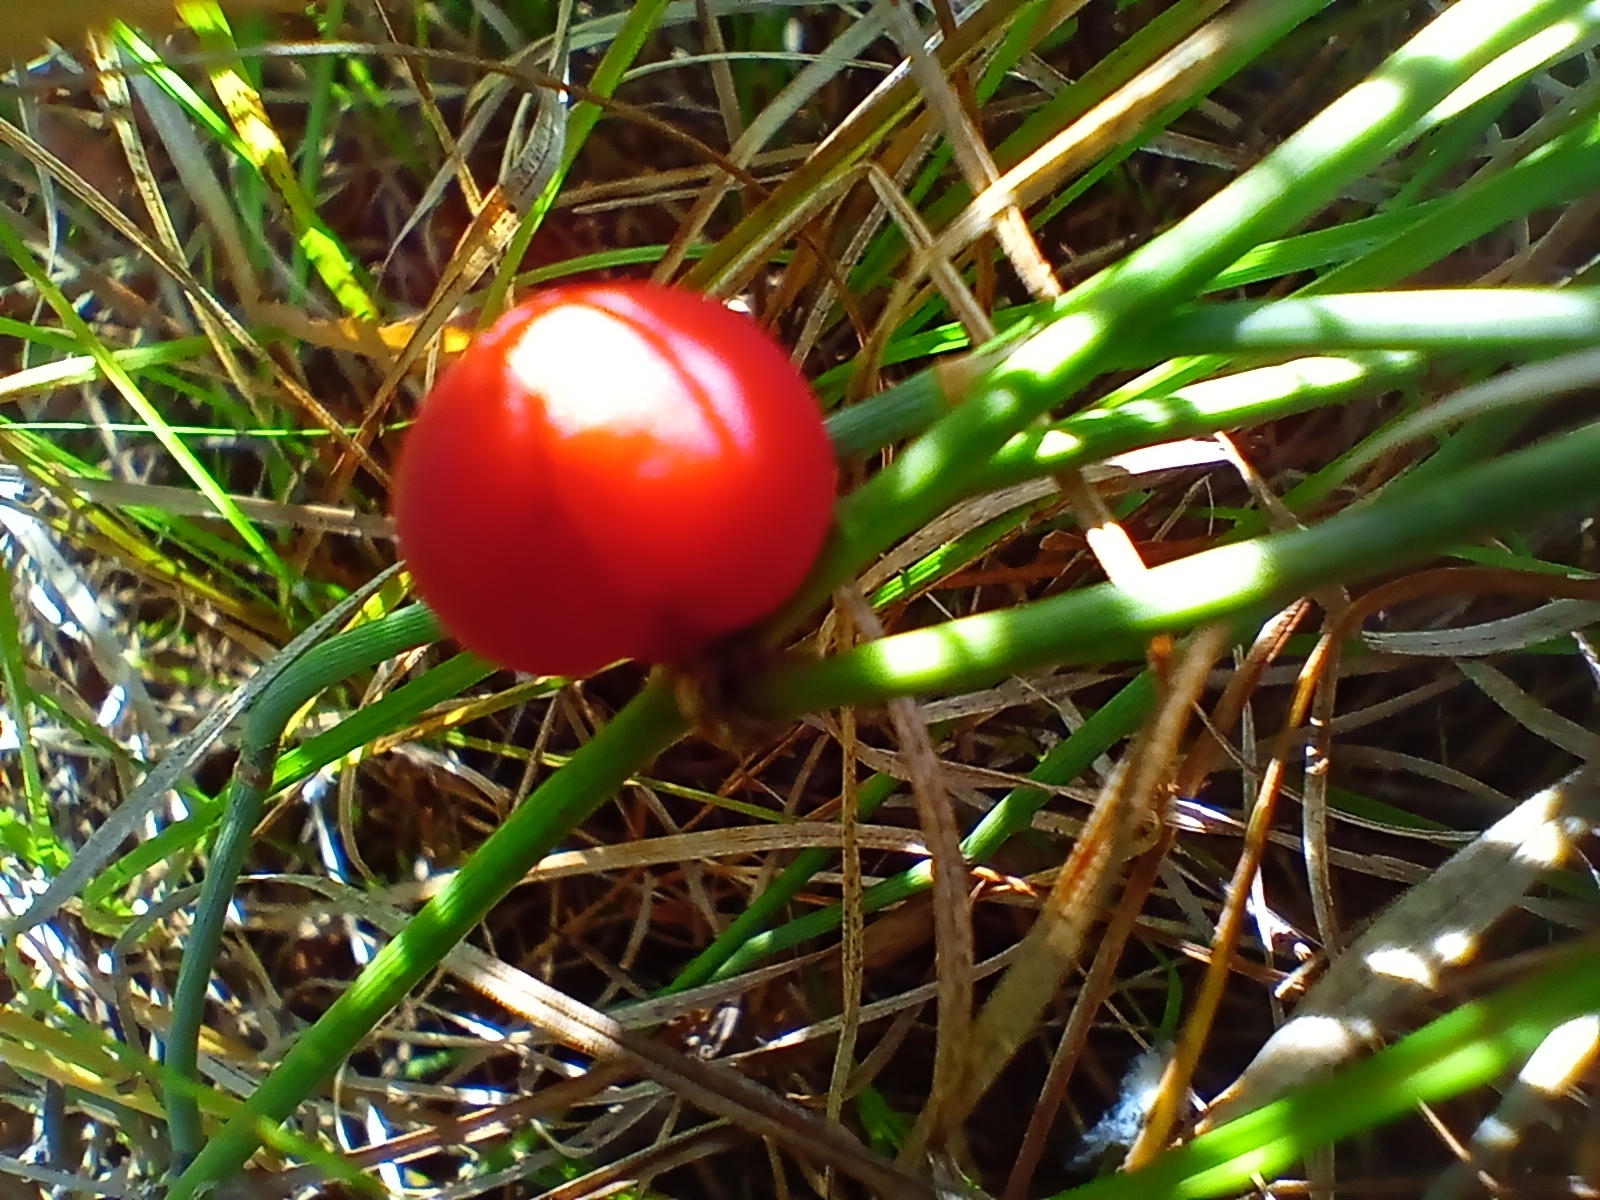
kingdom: Plantae
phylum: Tracheophyta
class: Gnetopsida
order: Ephedrales
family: Ephedraceae
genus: Ephedra
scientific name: Ephedra monosperma
